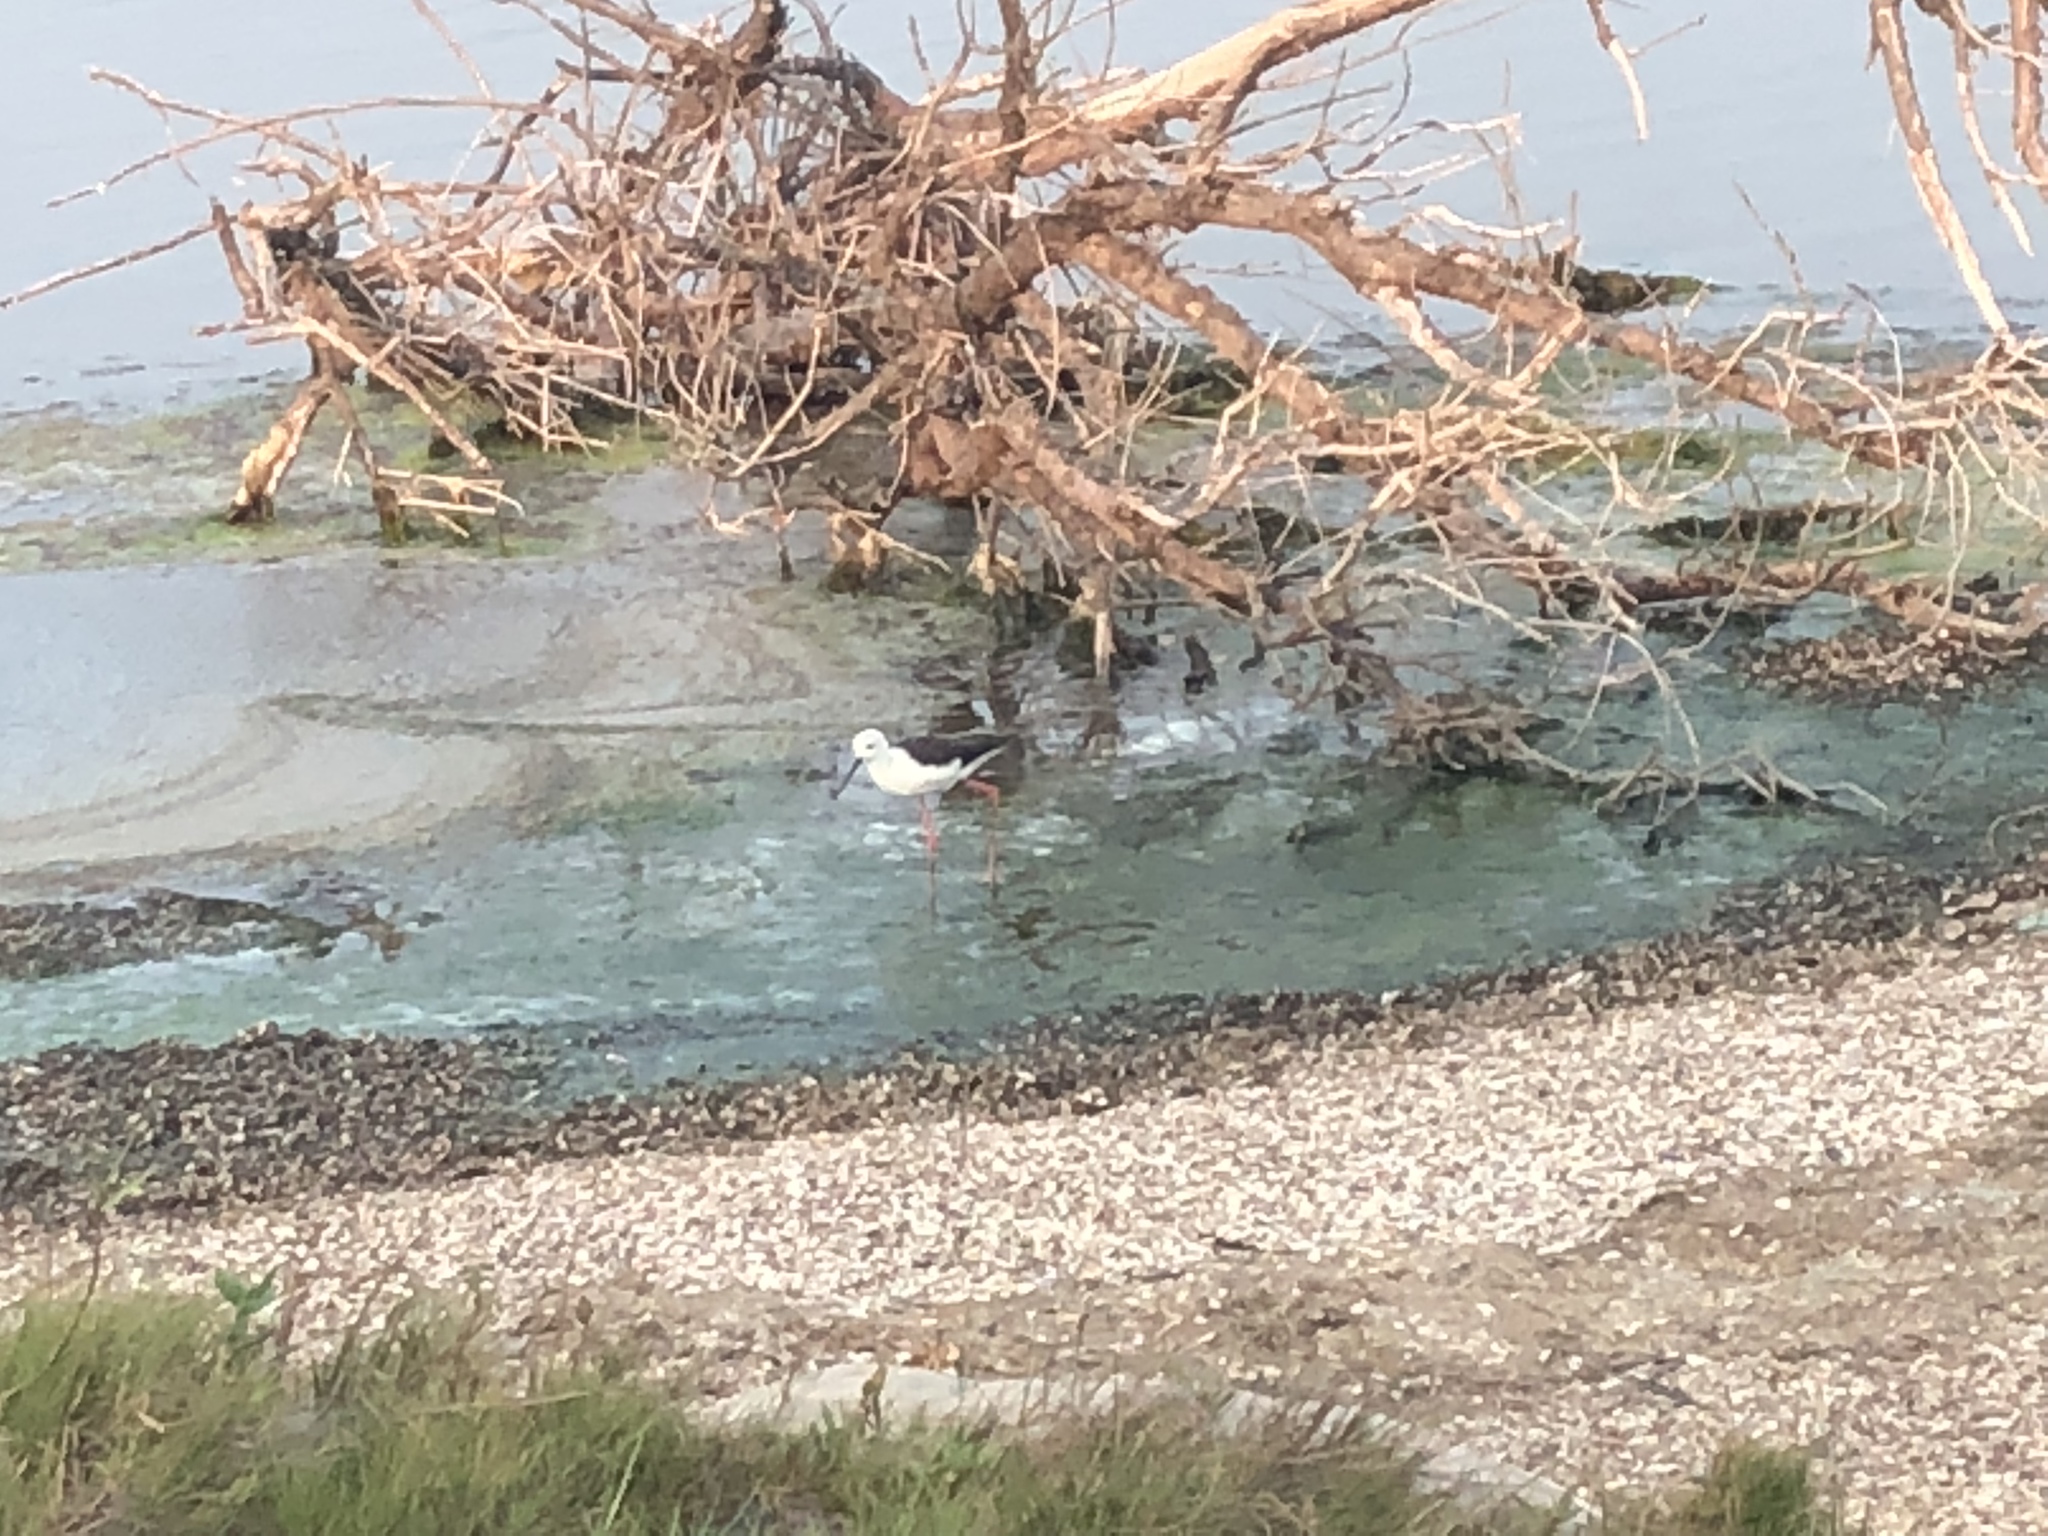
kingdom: Animalia
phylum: Chordata
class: Aves
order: Charadriiformes
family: Recurvirostridae
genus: Himantopus
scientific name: Himantopus himantopus
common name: Black-winged stilt
